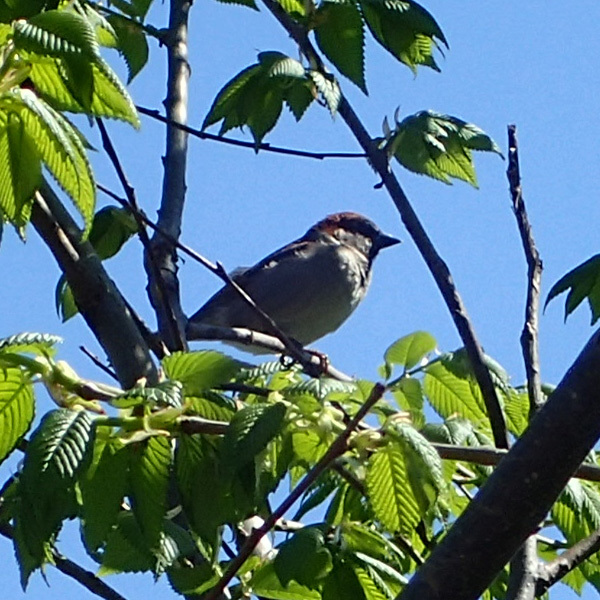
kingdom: Animalia
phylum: Chordata
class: Aves
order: Passeriformes
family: Passeridae
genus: Passer
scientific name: Passer domesticus
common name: House sparrow
